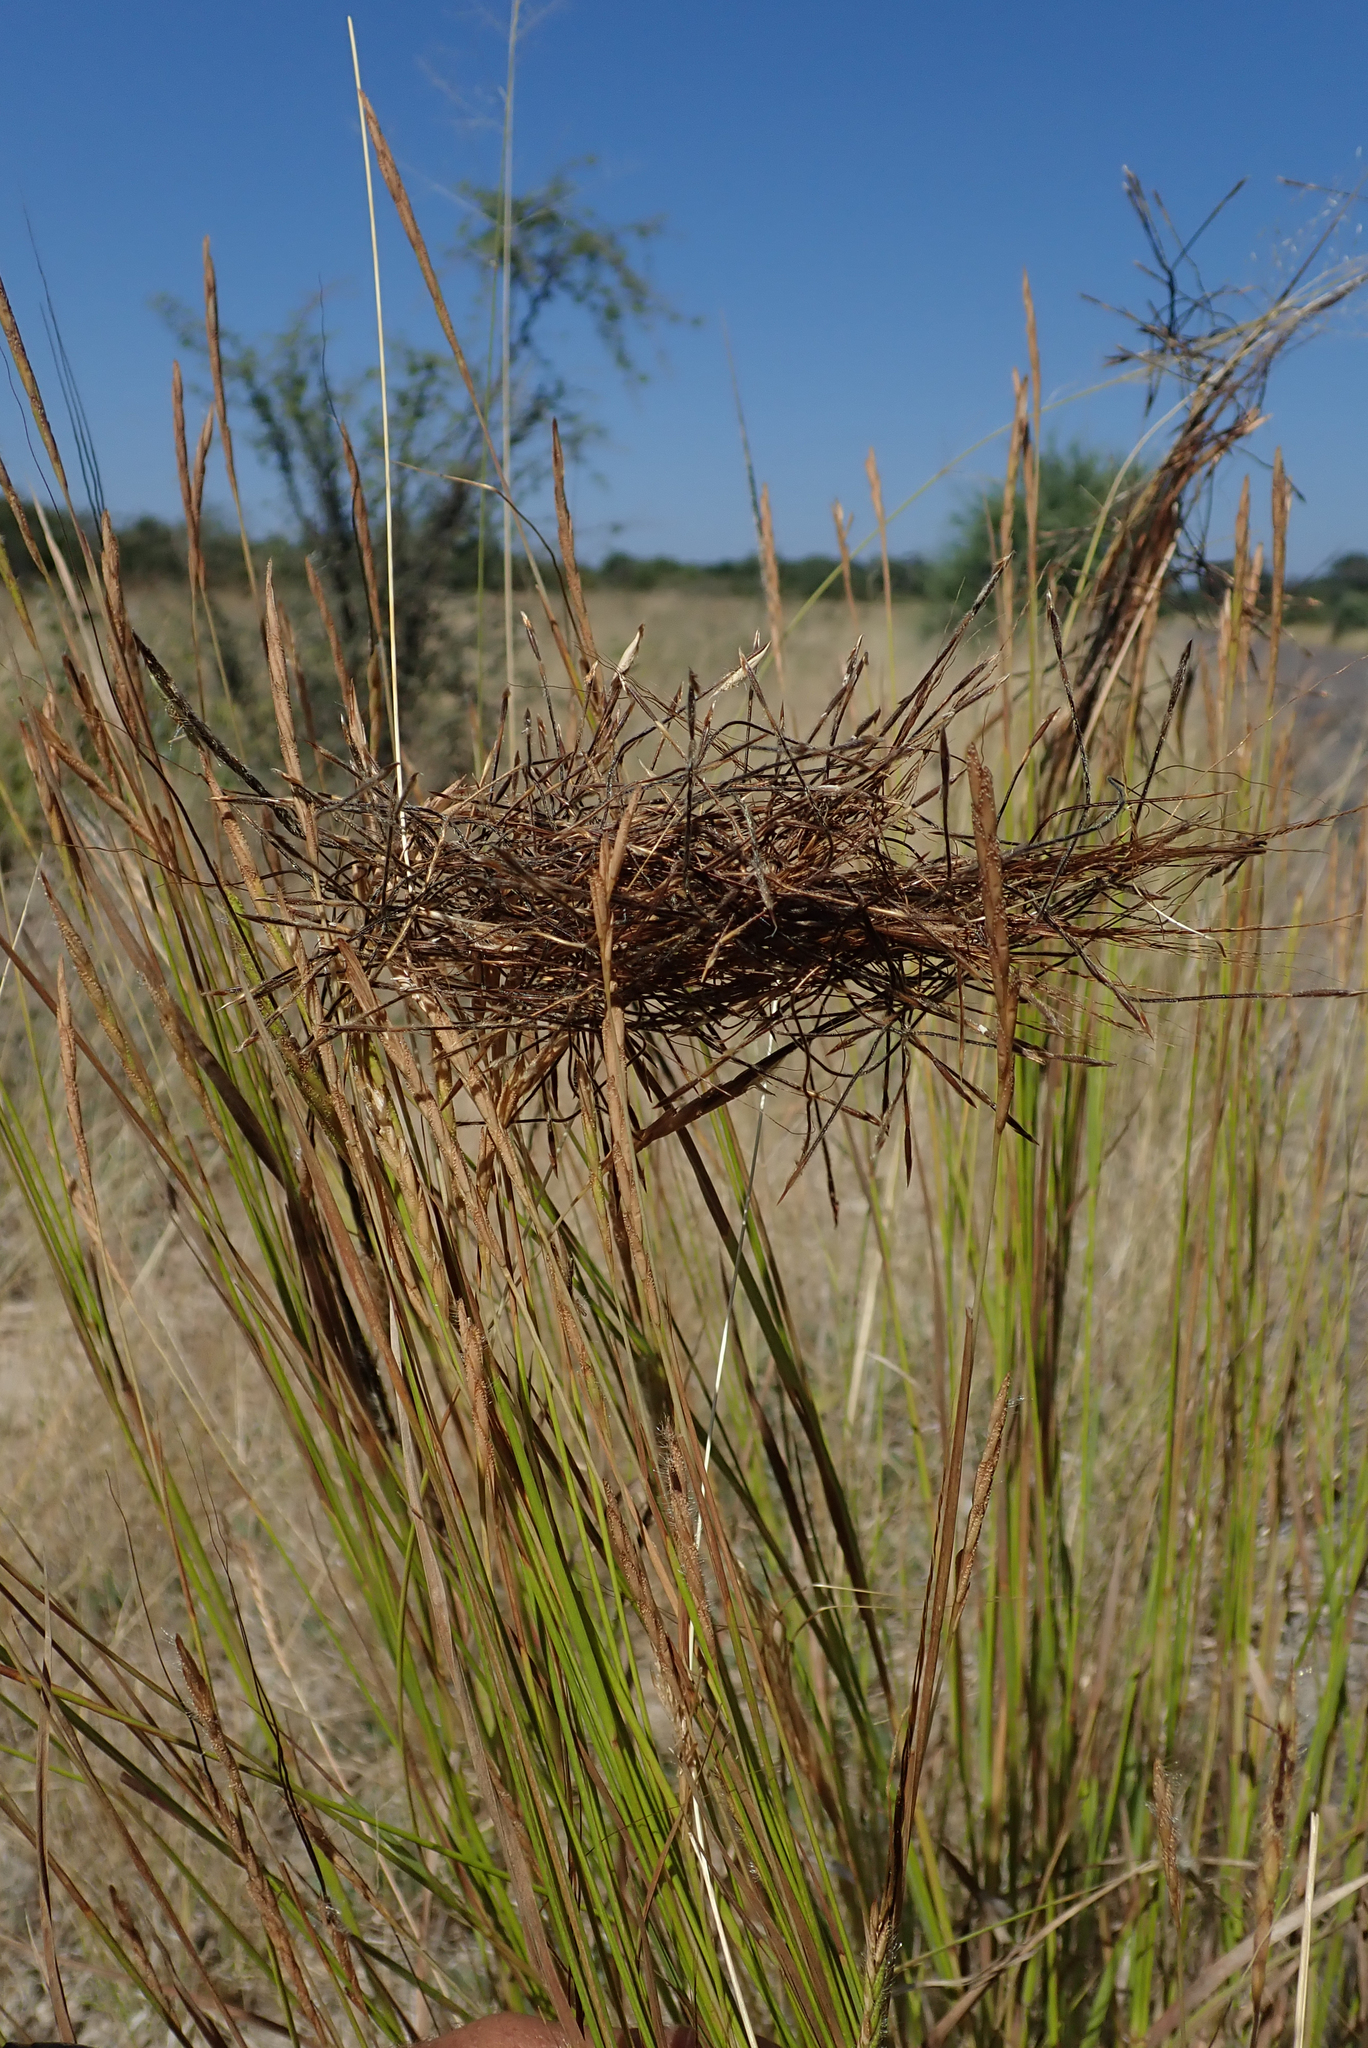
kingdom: Plantae
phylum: Tracheophyta
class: Liliopsida
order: Poales
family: Poaceae
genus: Heteropogon
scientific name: Heteropogon contortus
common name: Tanglehead
